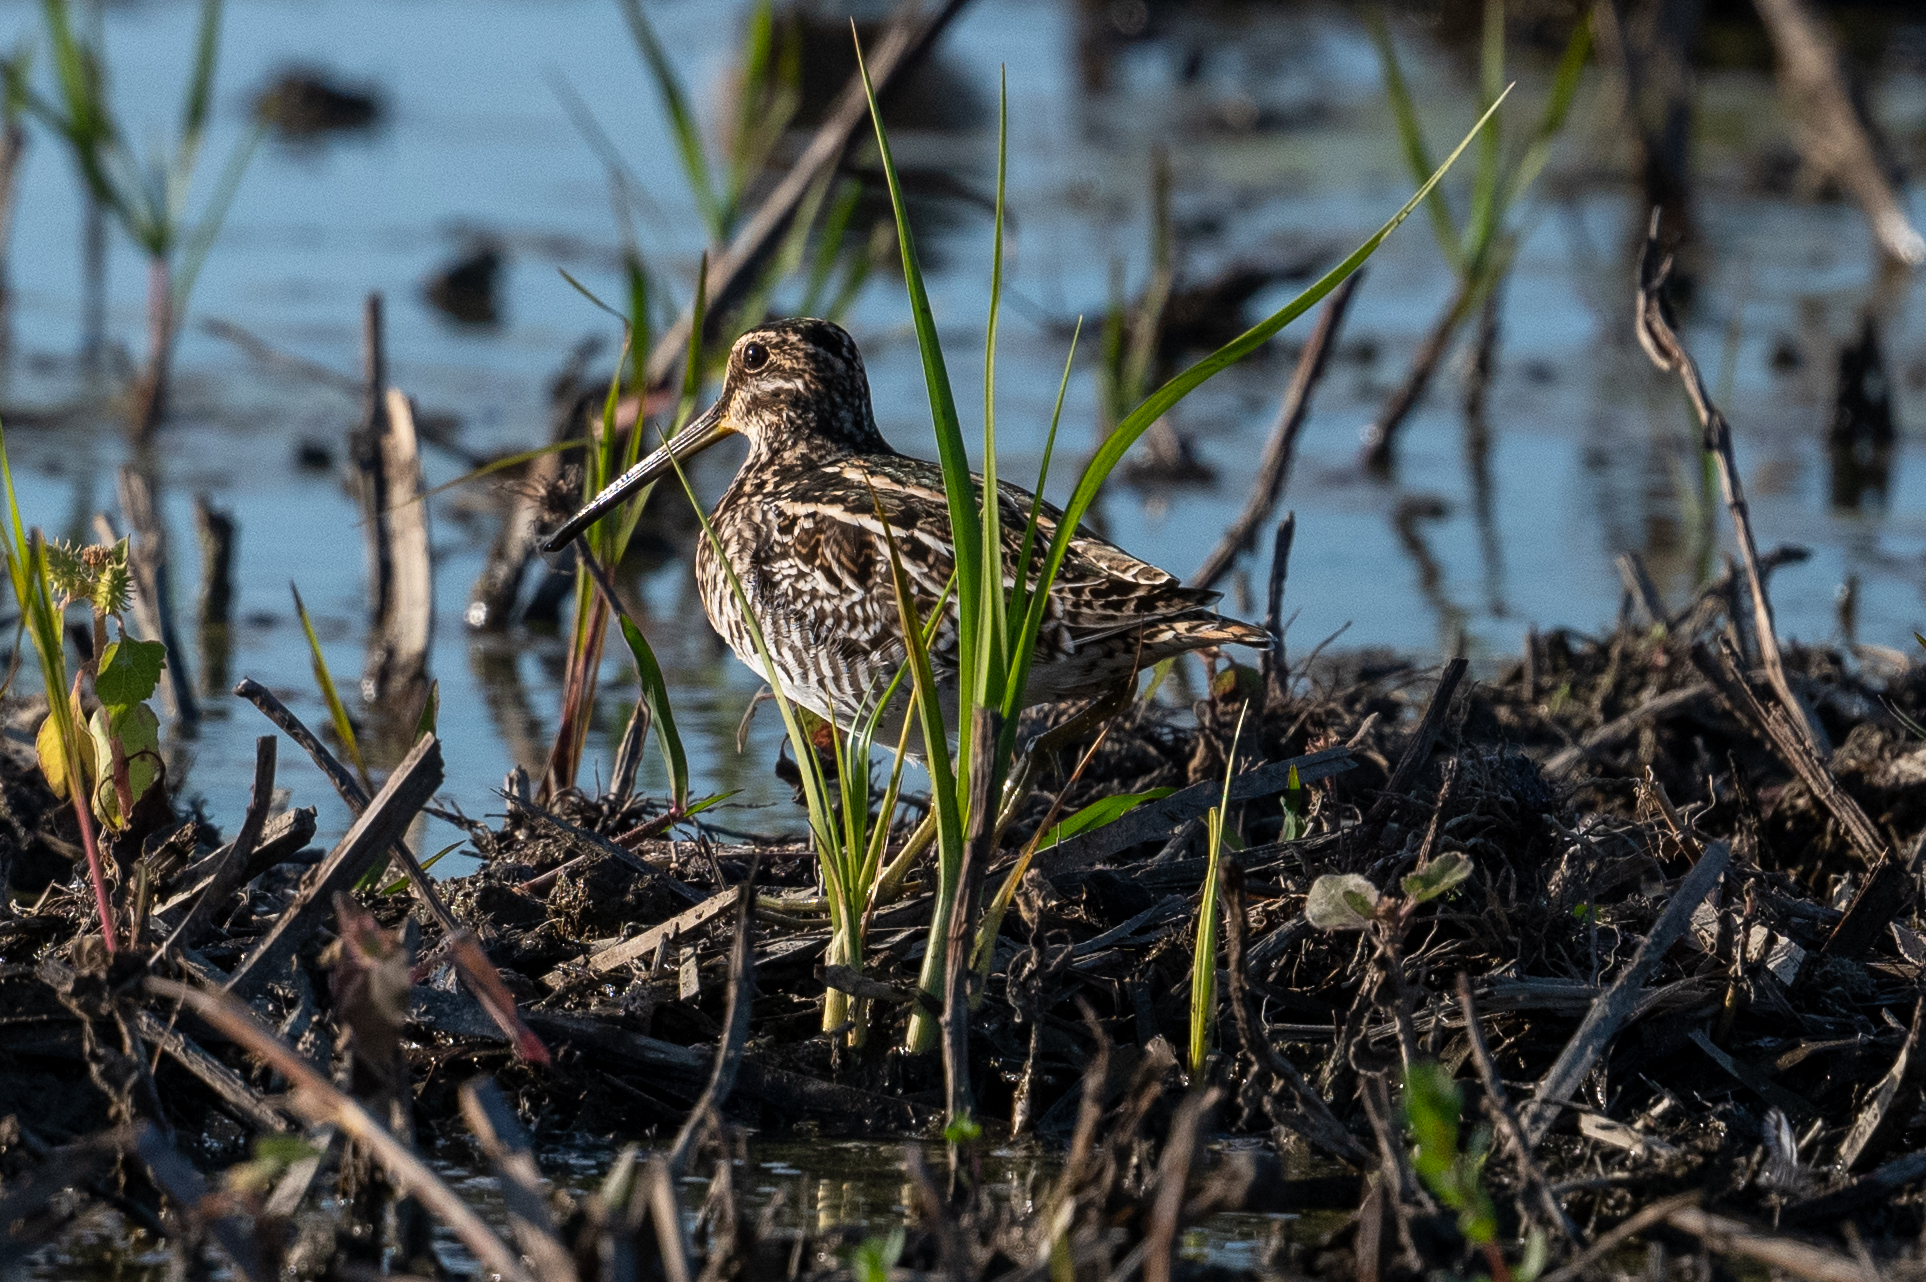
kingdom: Animalia
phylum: Chordata
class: Aves
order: Charadriiformes
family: Scolopacidae
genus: Gallinago
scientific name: Gallinago delicata
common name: Wilson's snipe
